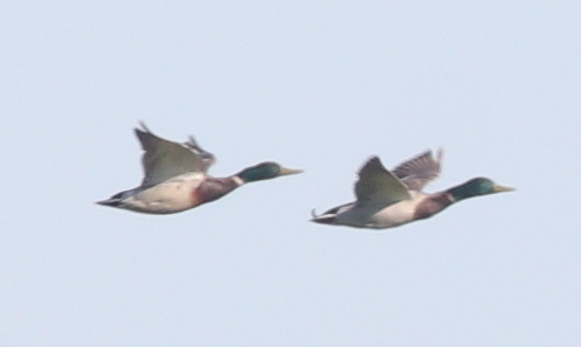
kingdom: Animalia
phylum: Chordata
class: Aves
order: Anseriformes
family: Anatidae
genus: Anas
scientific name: Anas platyrhynchos
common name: Mallard
